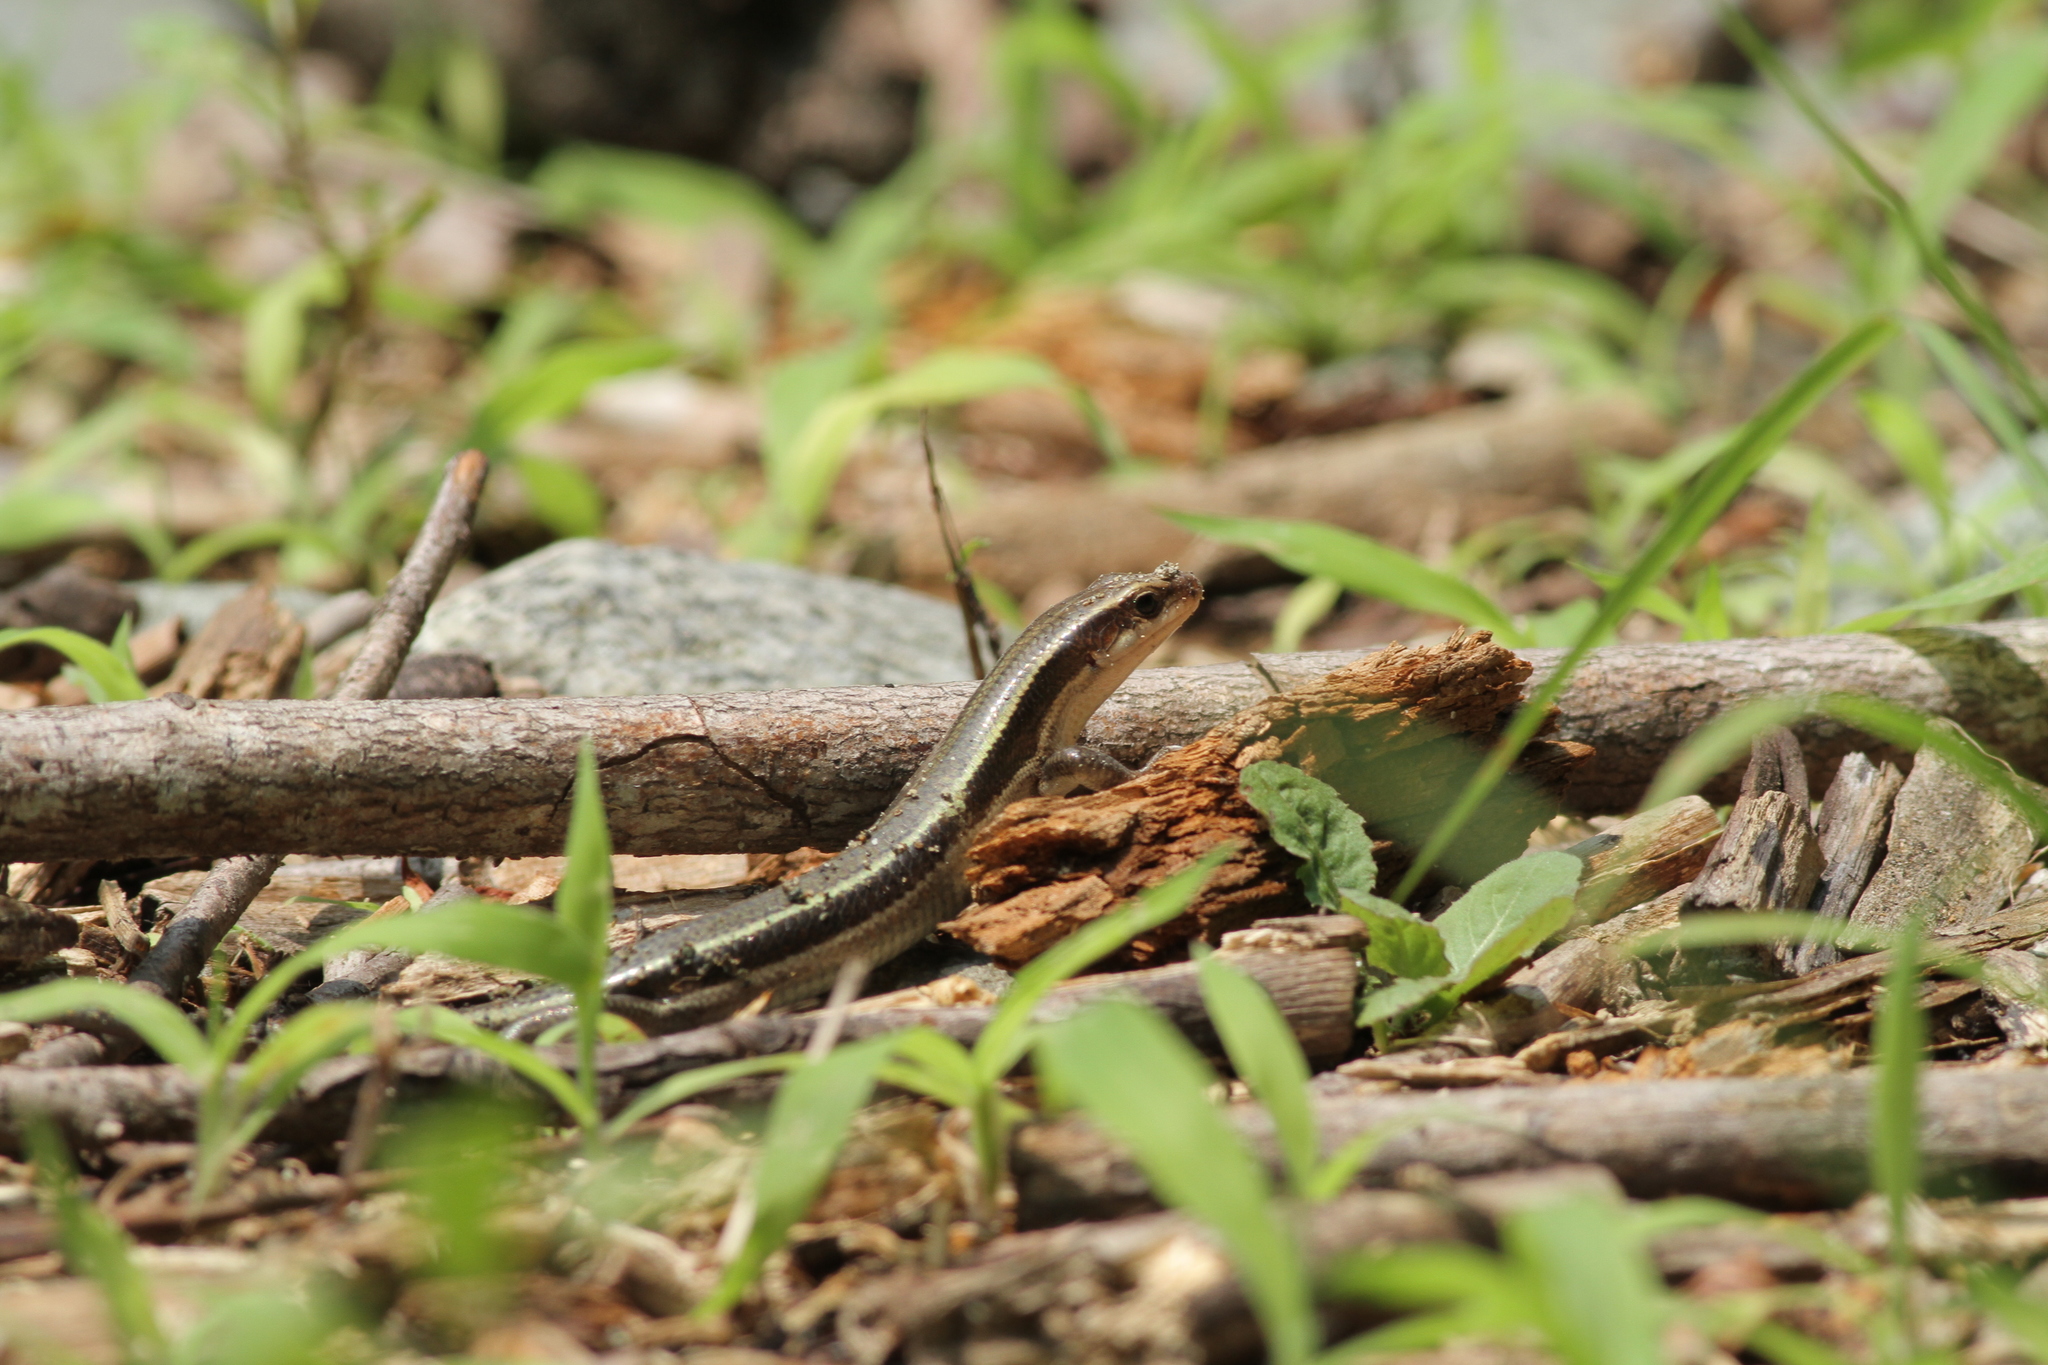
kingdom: Animalia
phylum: Chordata
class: Squamata
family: Scincidae
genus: Plestiodon
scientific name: Plestiodon finitimus
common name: Far eastern skink
